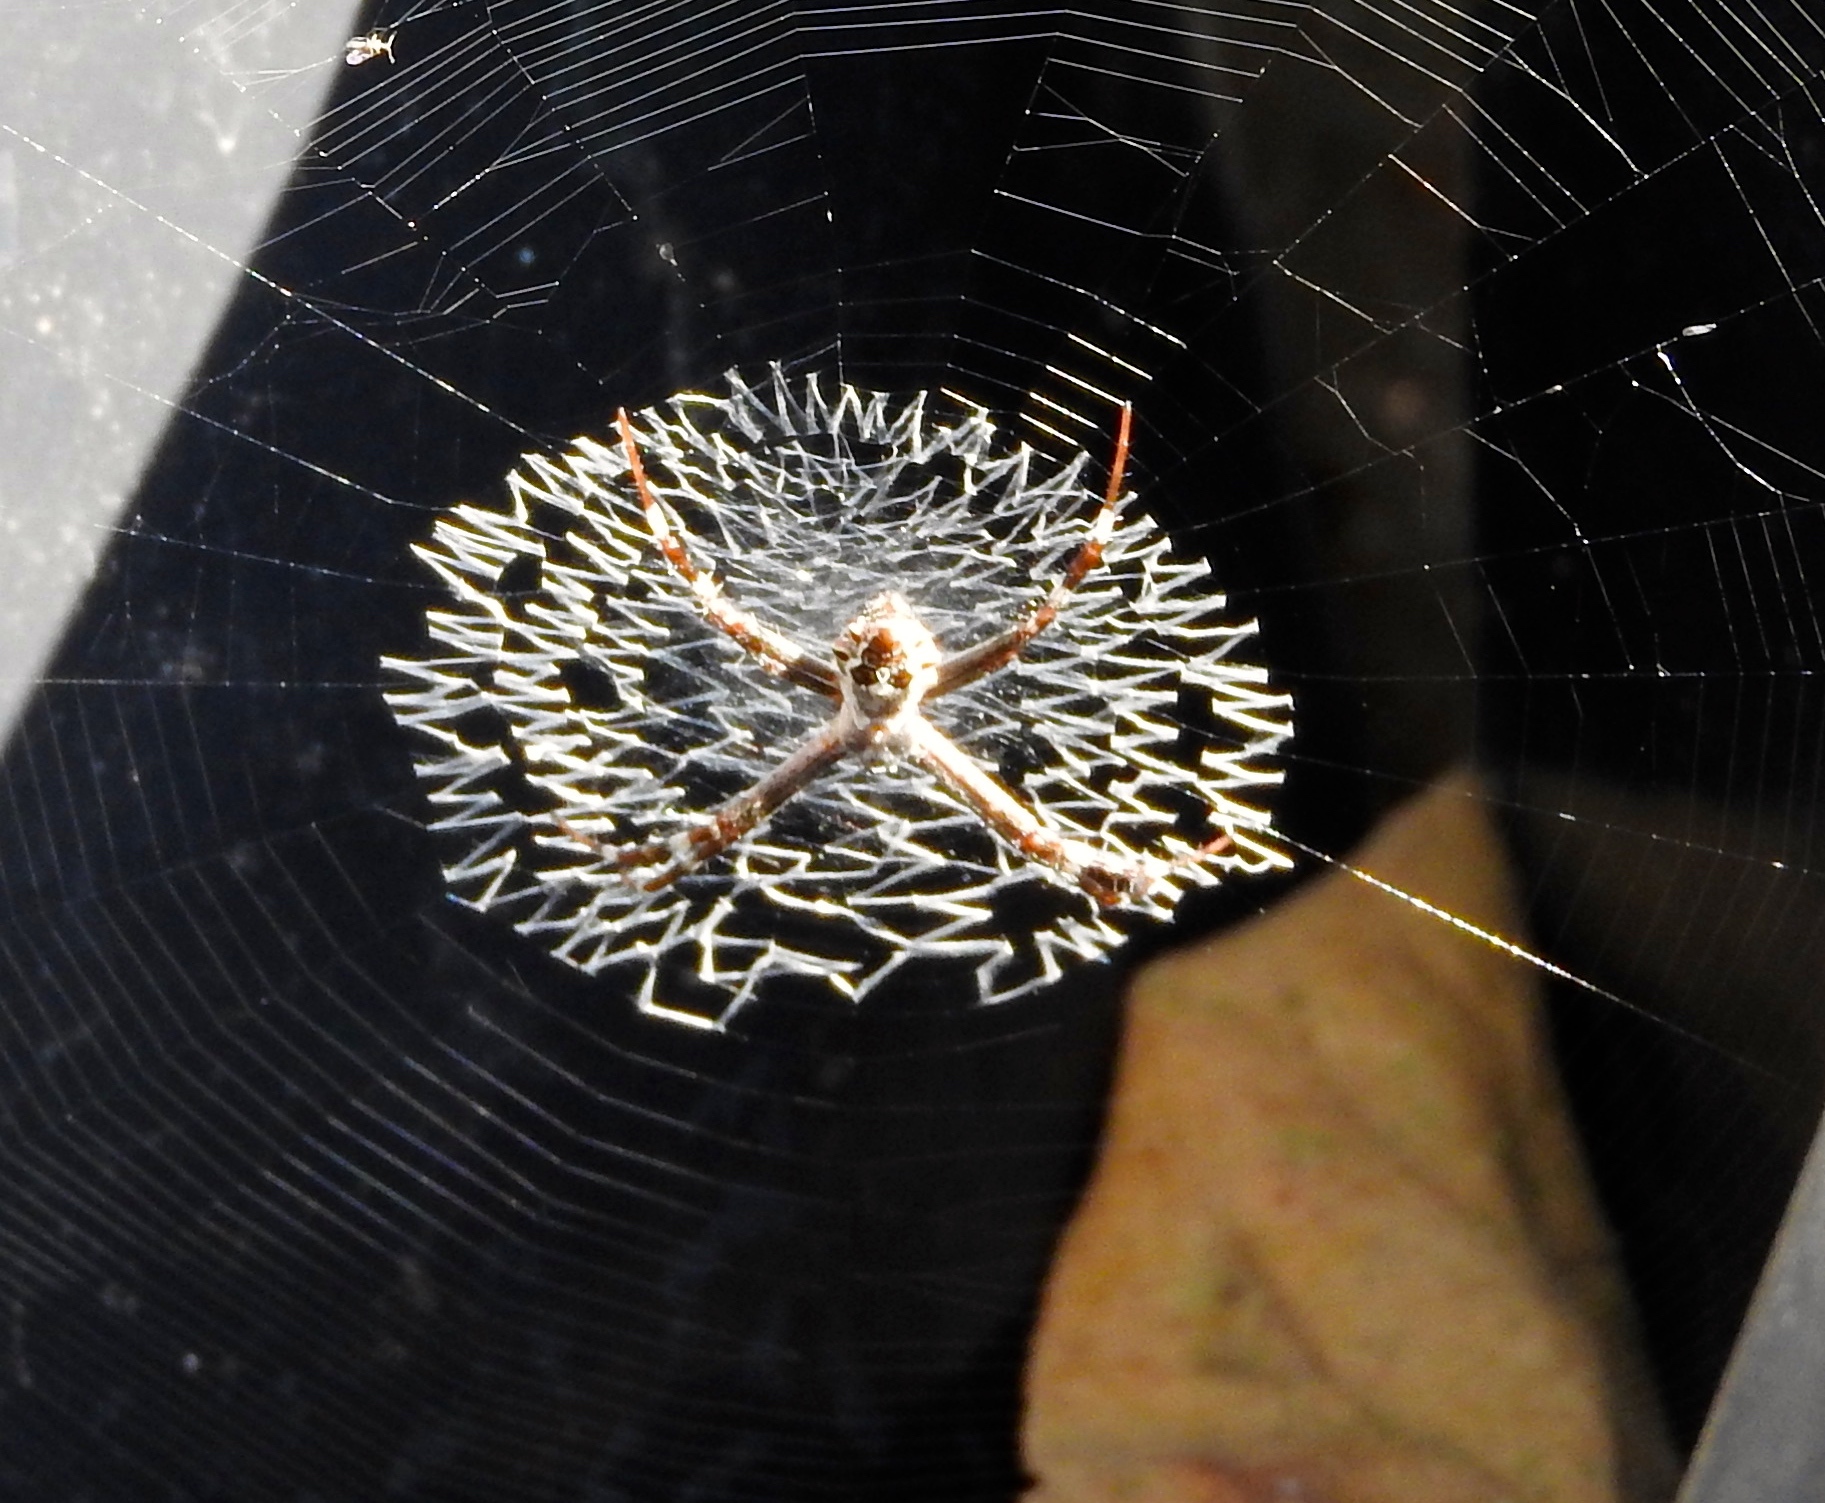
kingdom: Animalia
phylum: Arthropoda
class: Arachnida
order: Araneae
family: Araneidae
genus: Argiope
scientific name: Argiope argentata
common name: Orb weavers
